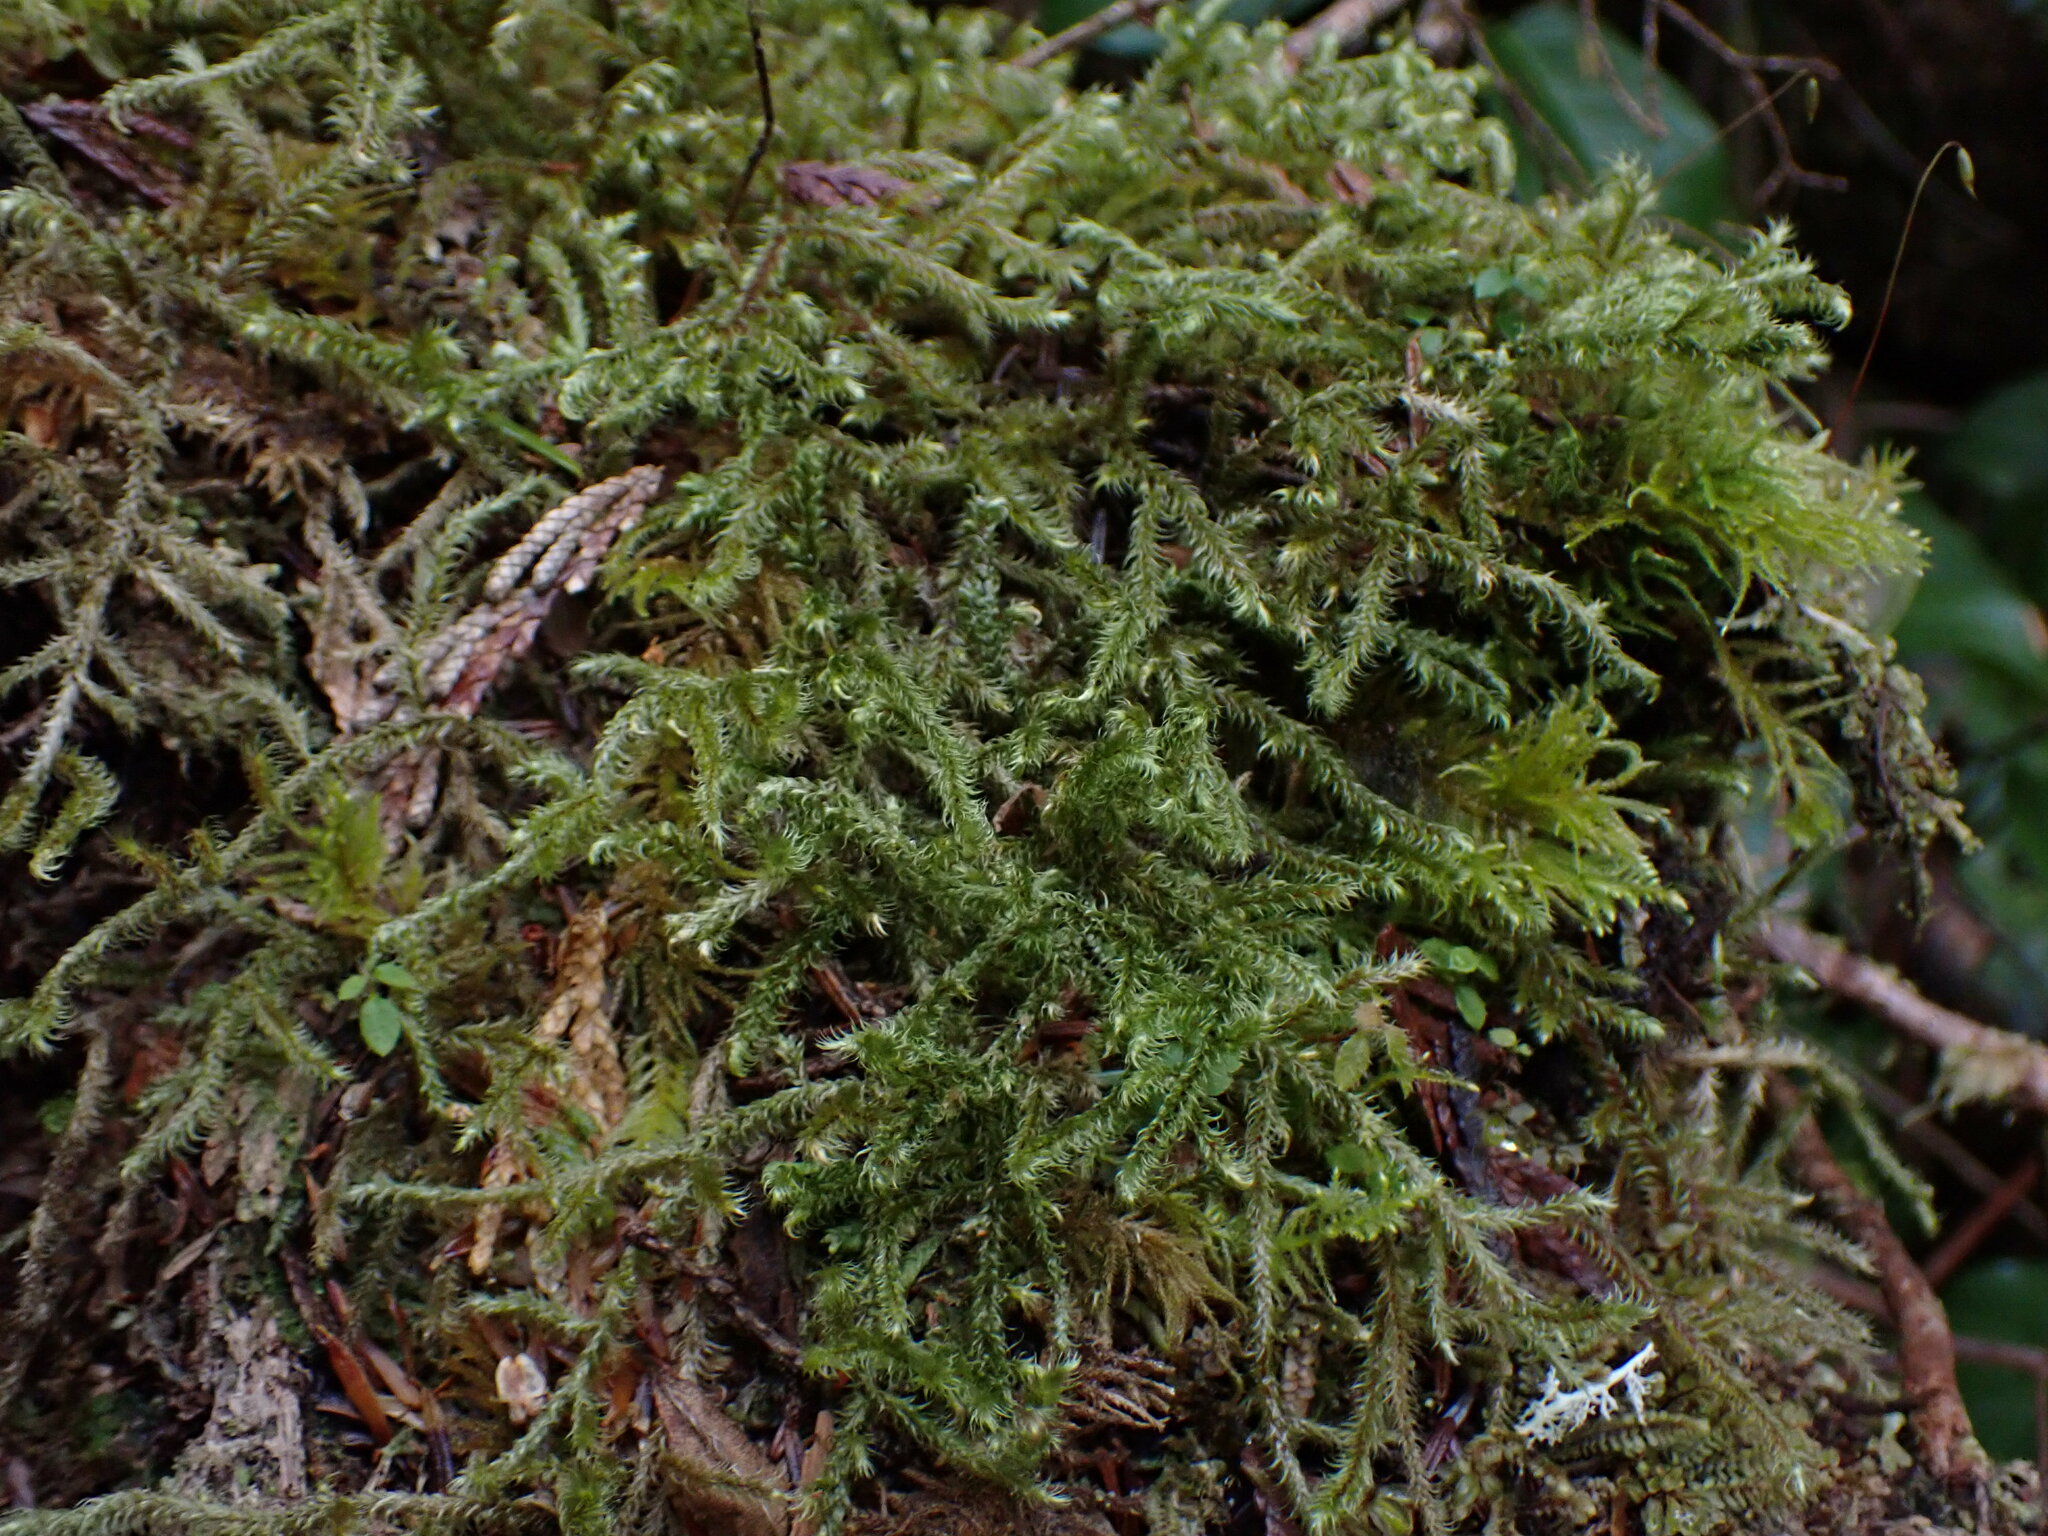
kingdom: Plantae
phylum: Bryophyta
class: Bryopsida
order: Hypnales
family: Hylocomiaceae
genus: Rhytidiadelphus
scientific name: Rhytidiadelphus loreus
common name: Lanky moss
